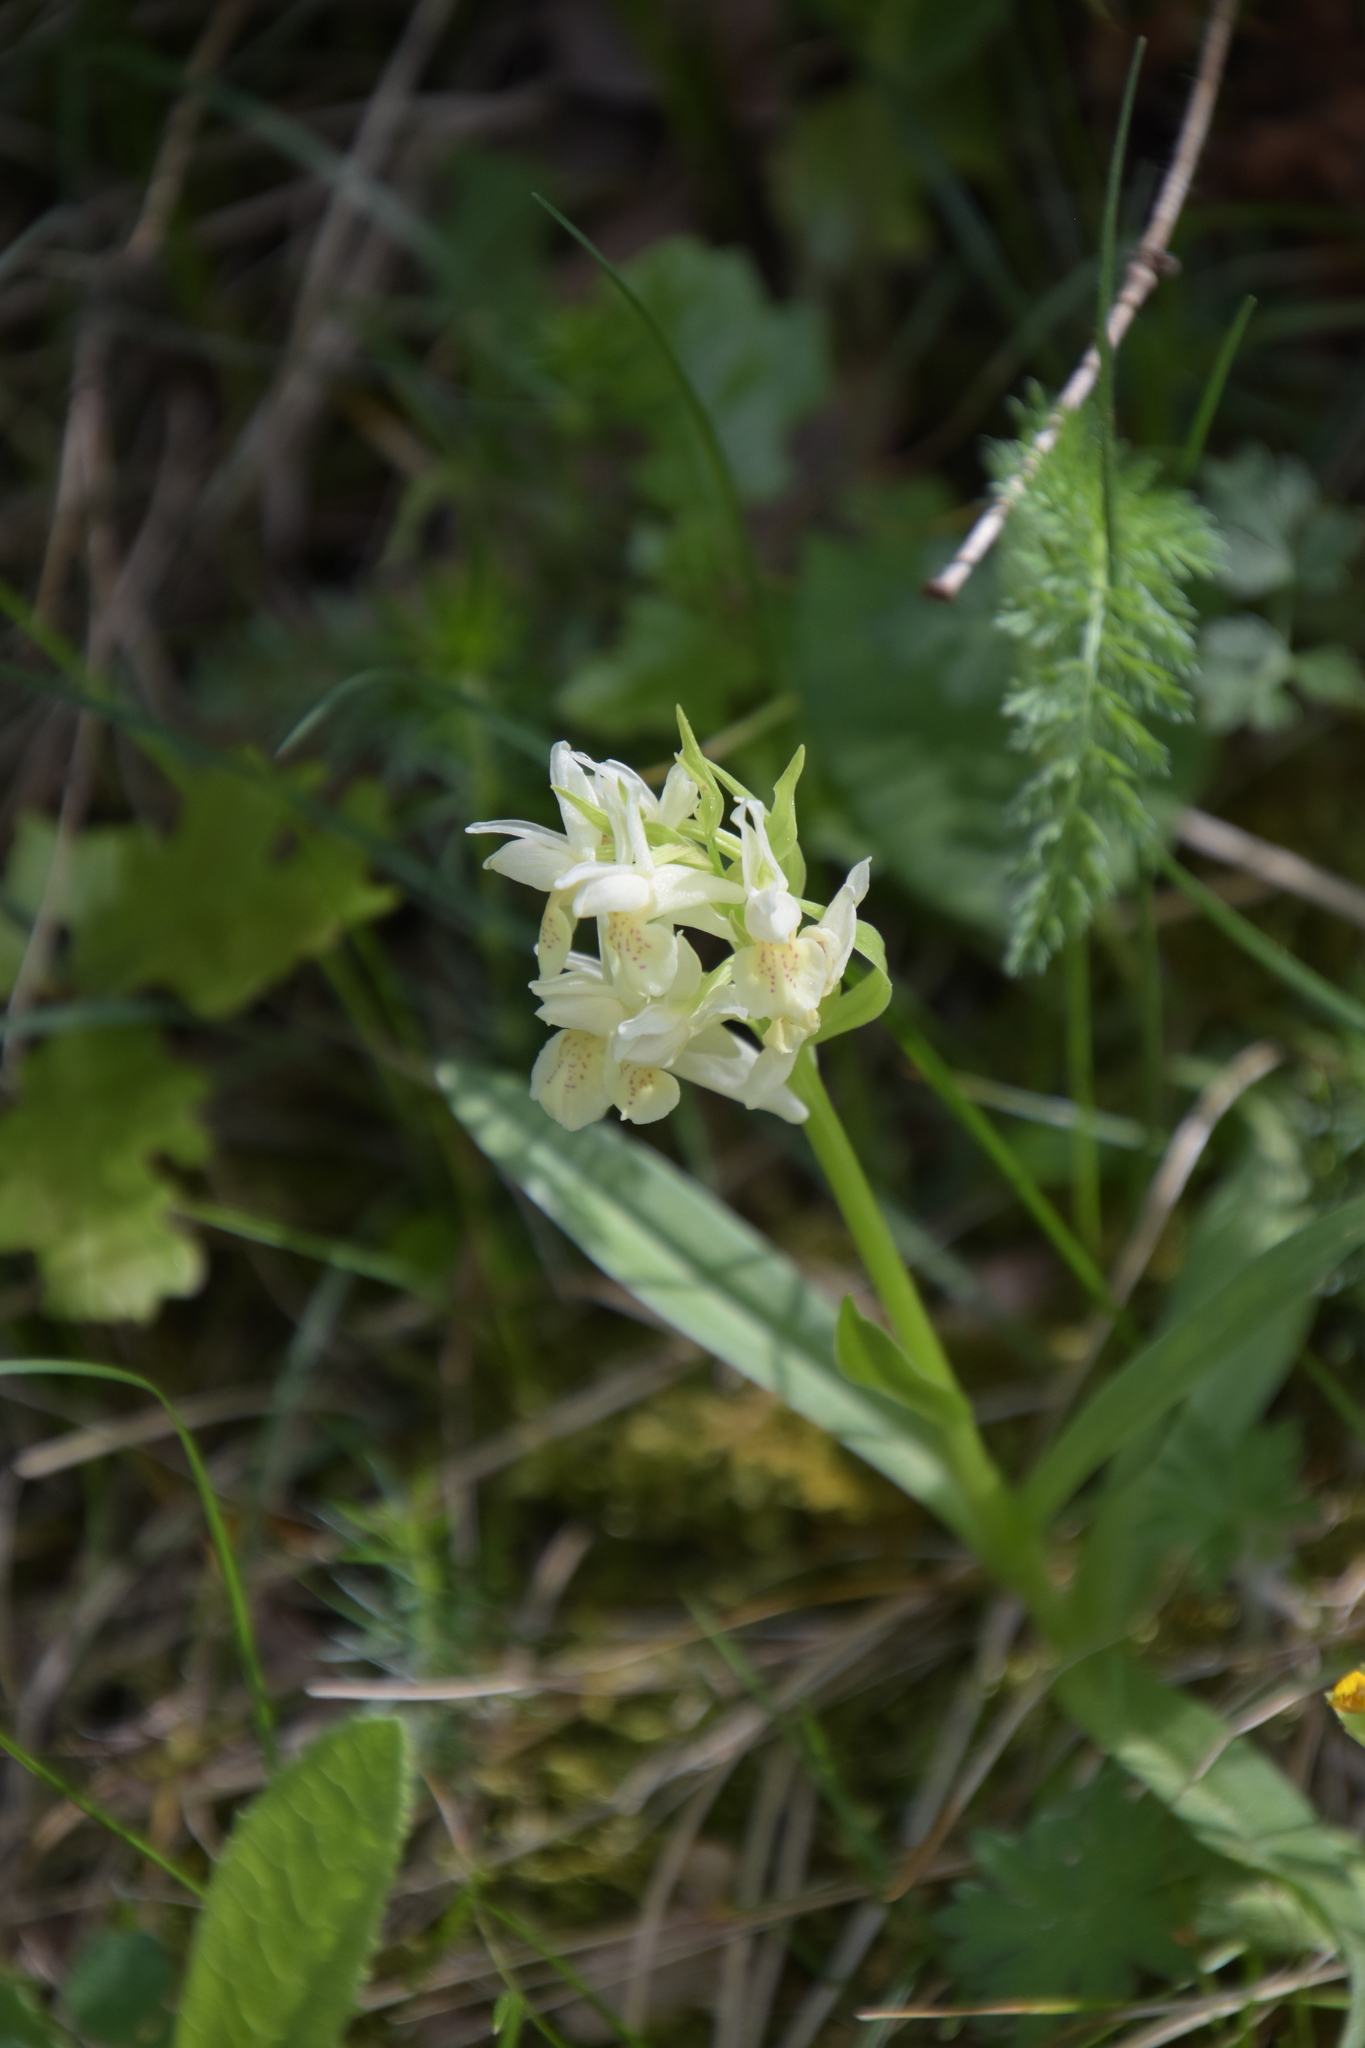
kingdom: Plantae
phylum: Tracheophyta
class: Liliopsida
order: Asparagales
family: Orchidaceae
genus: Dactylorhiza
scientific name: Dactylorhiza sambucina
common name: Elder-flowered orchid
